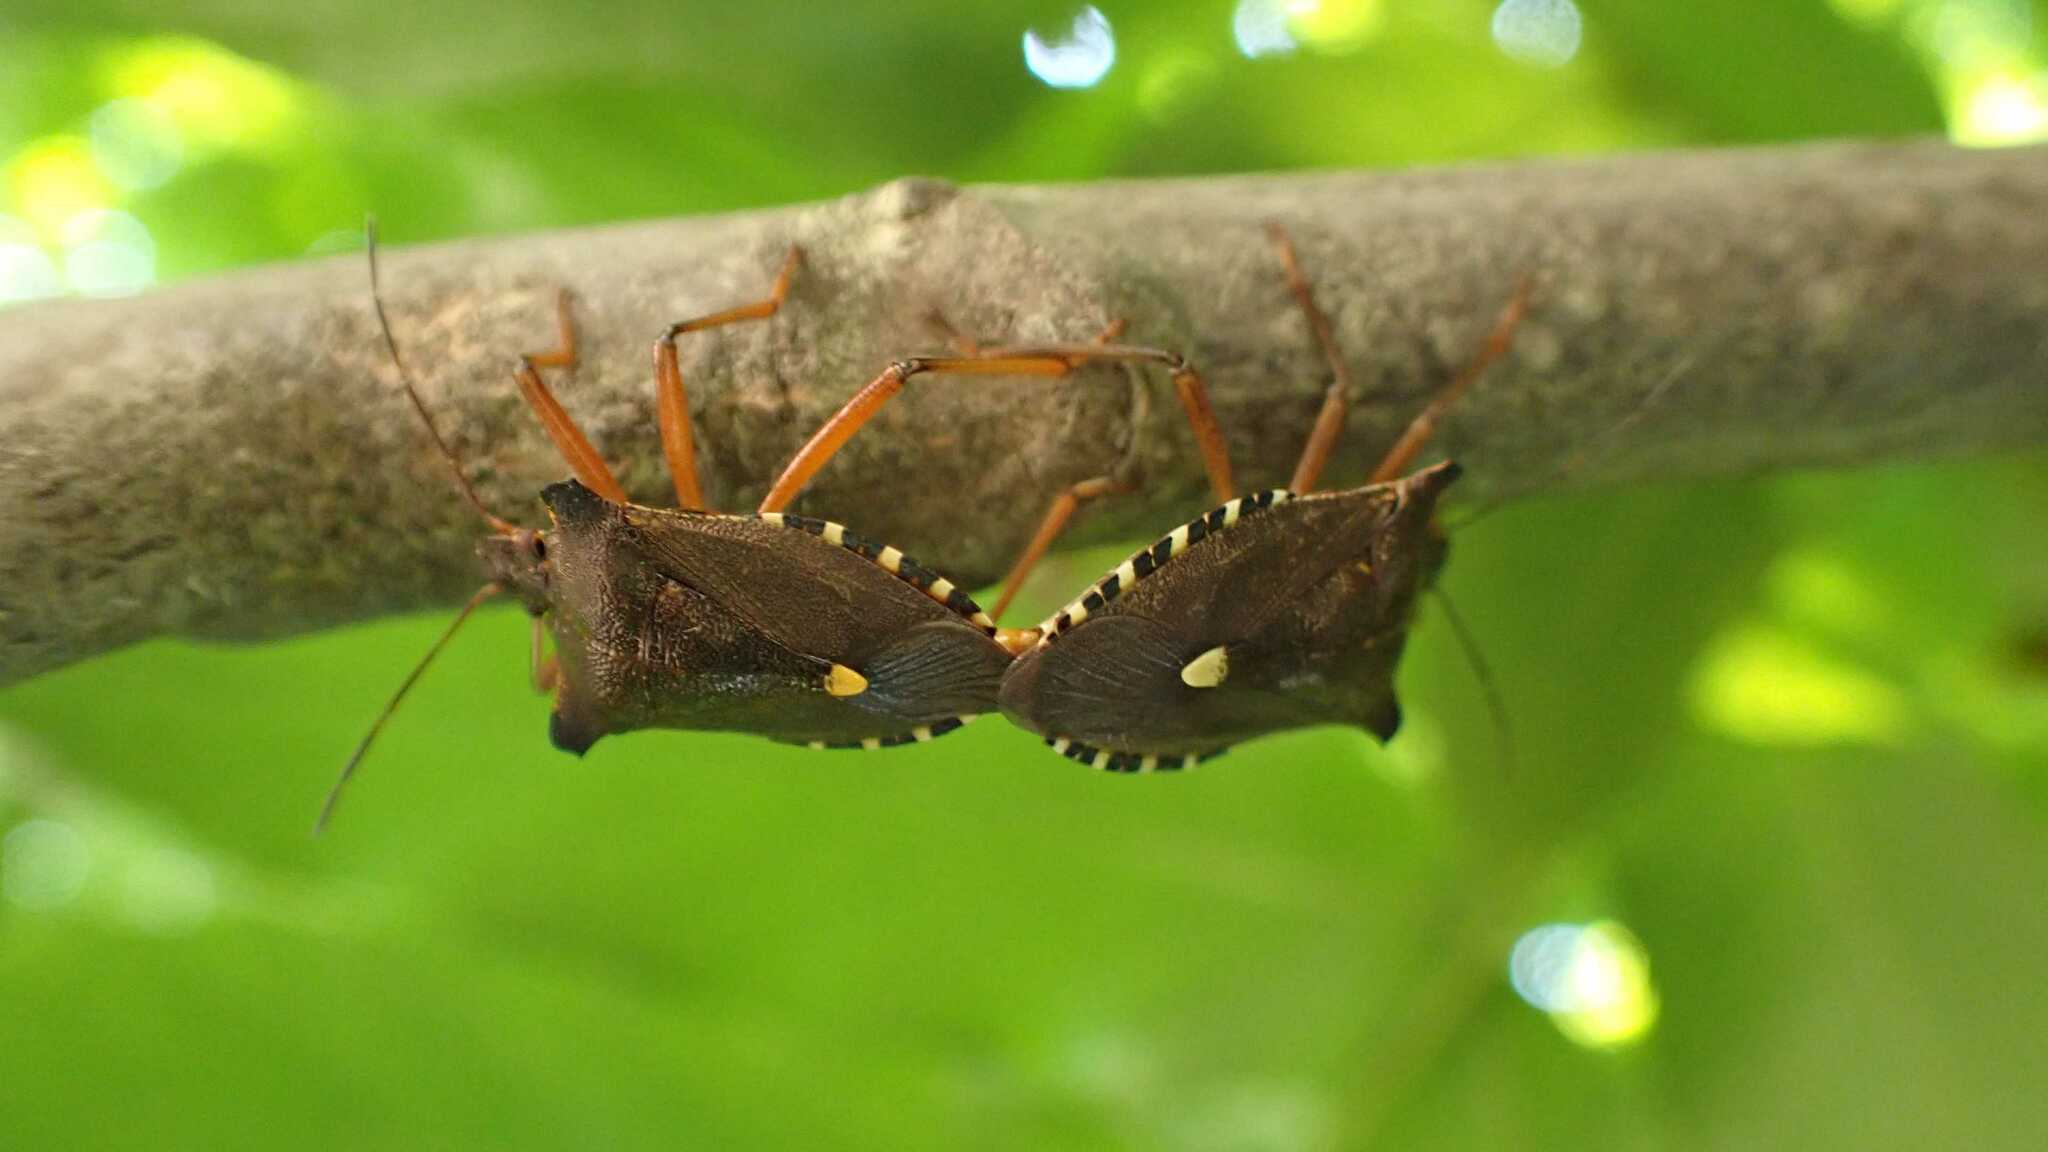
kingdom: Animalia
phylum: Arthropoda
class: Insecta
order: Hemiptera
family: Pentatomidae
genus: Pentatoma
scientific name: Pentatoma rufipes
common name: Forest bug
